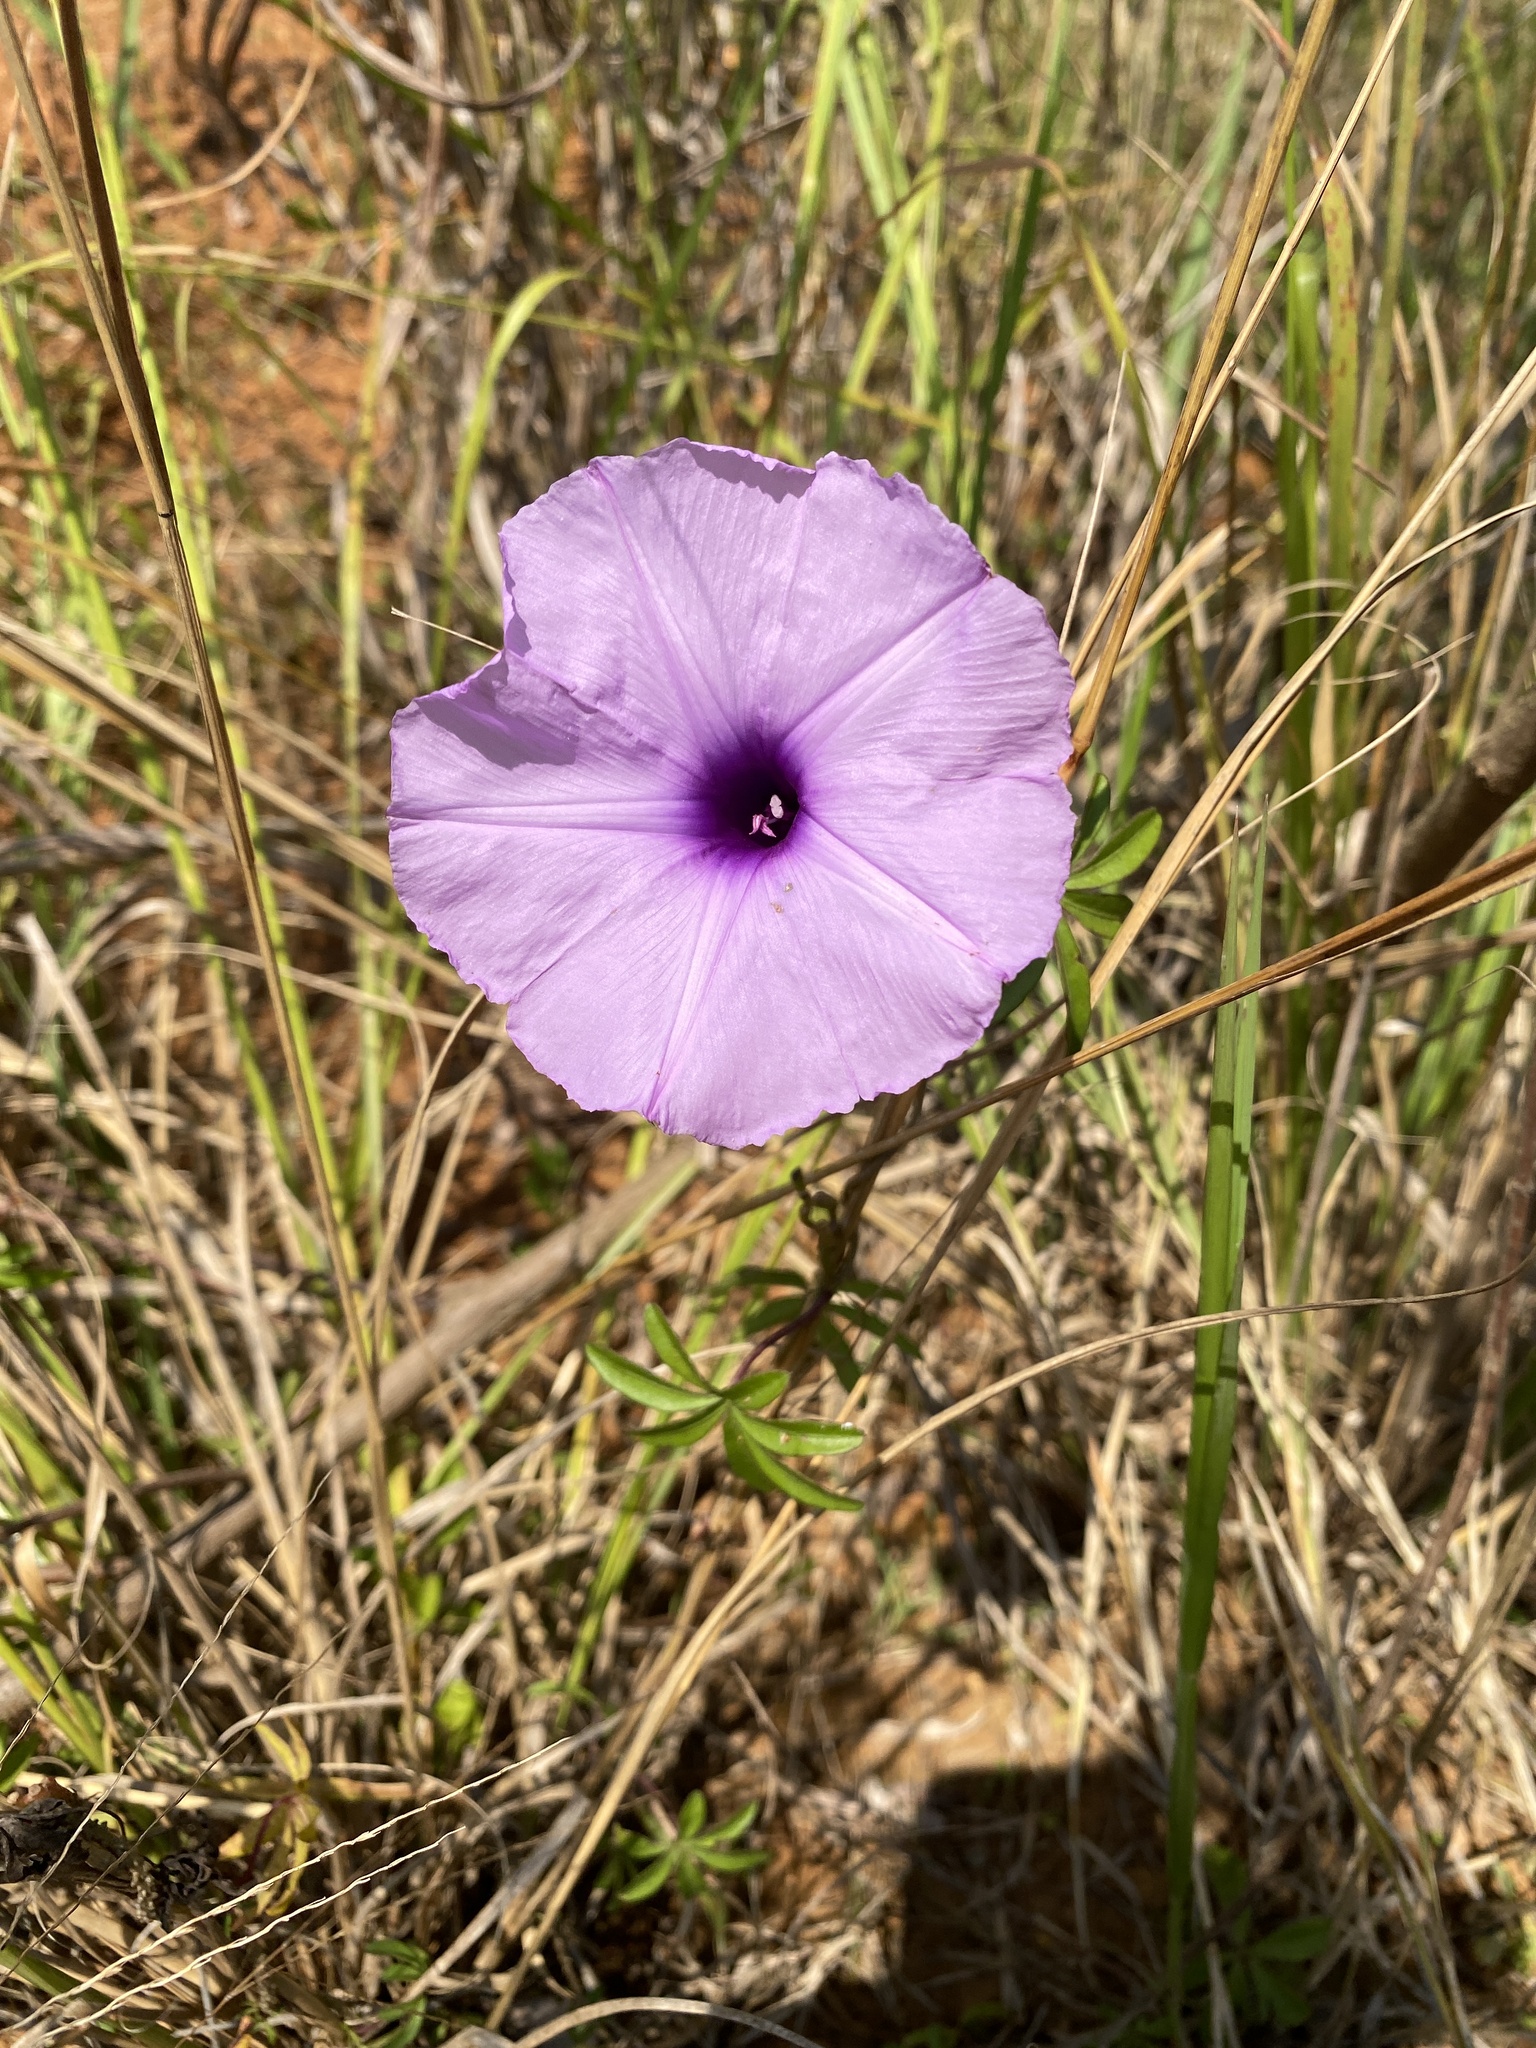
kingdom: Plantae
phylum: Tracheophyta
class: Magnoliopsida
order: Solanales
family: Convolvulaceae
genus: Ipomoea
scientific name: Ipomoea cairica
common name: Mile a minute vine
